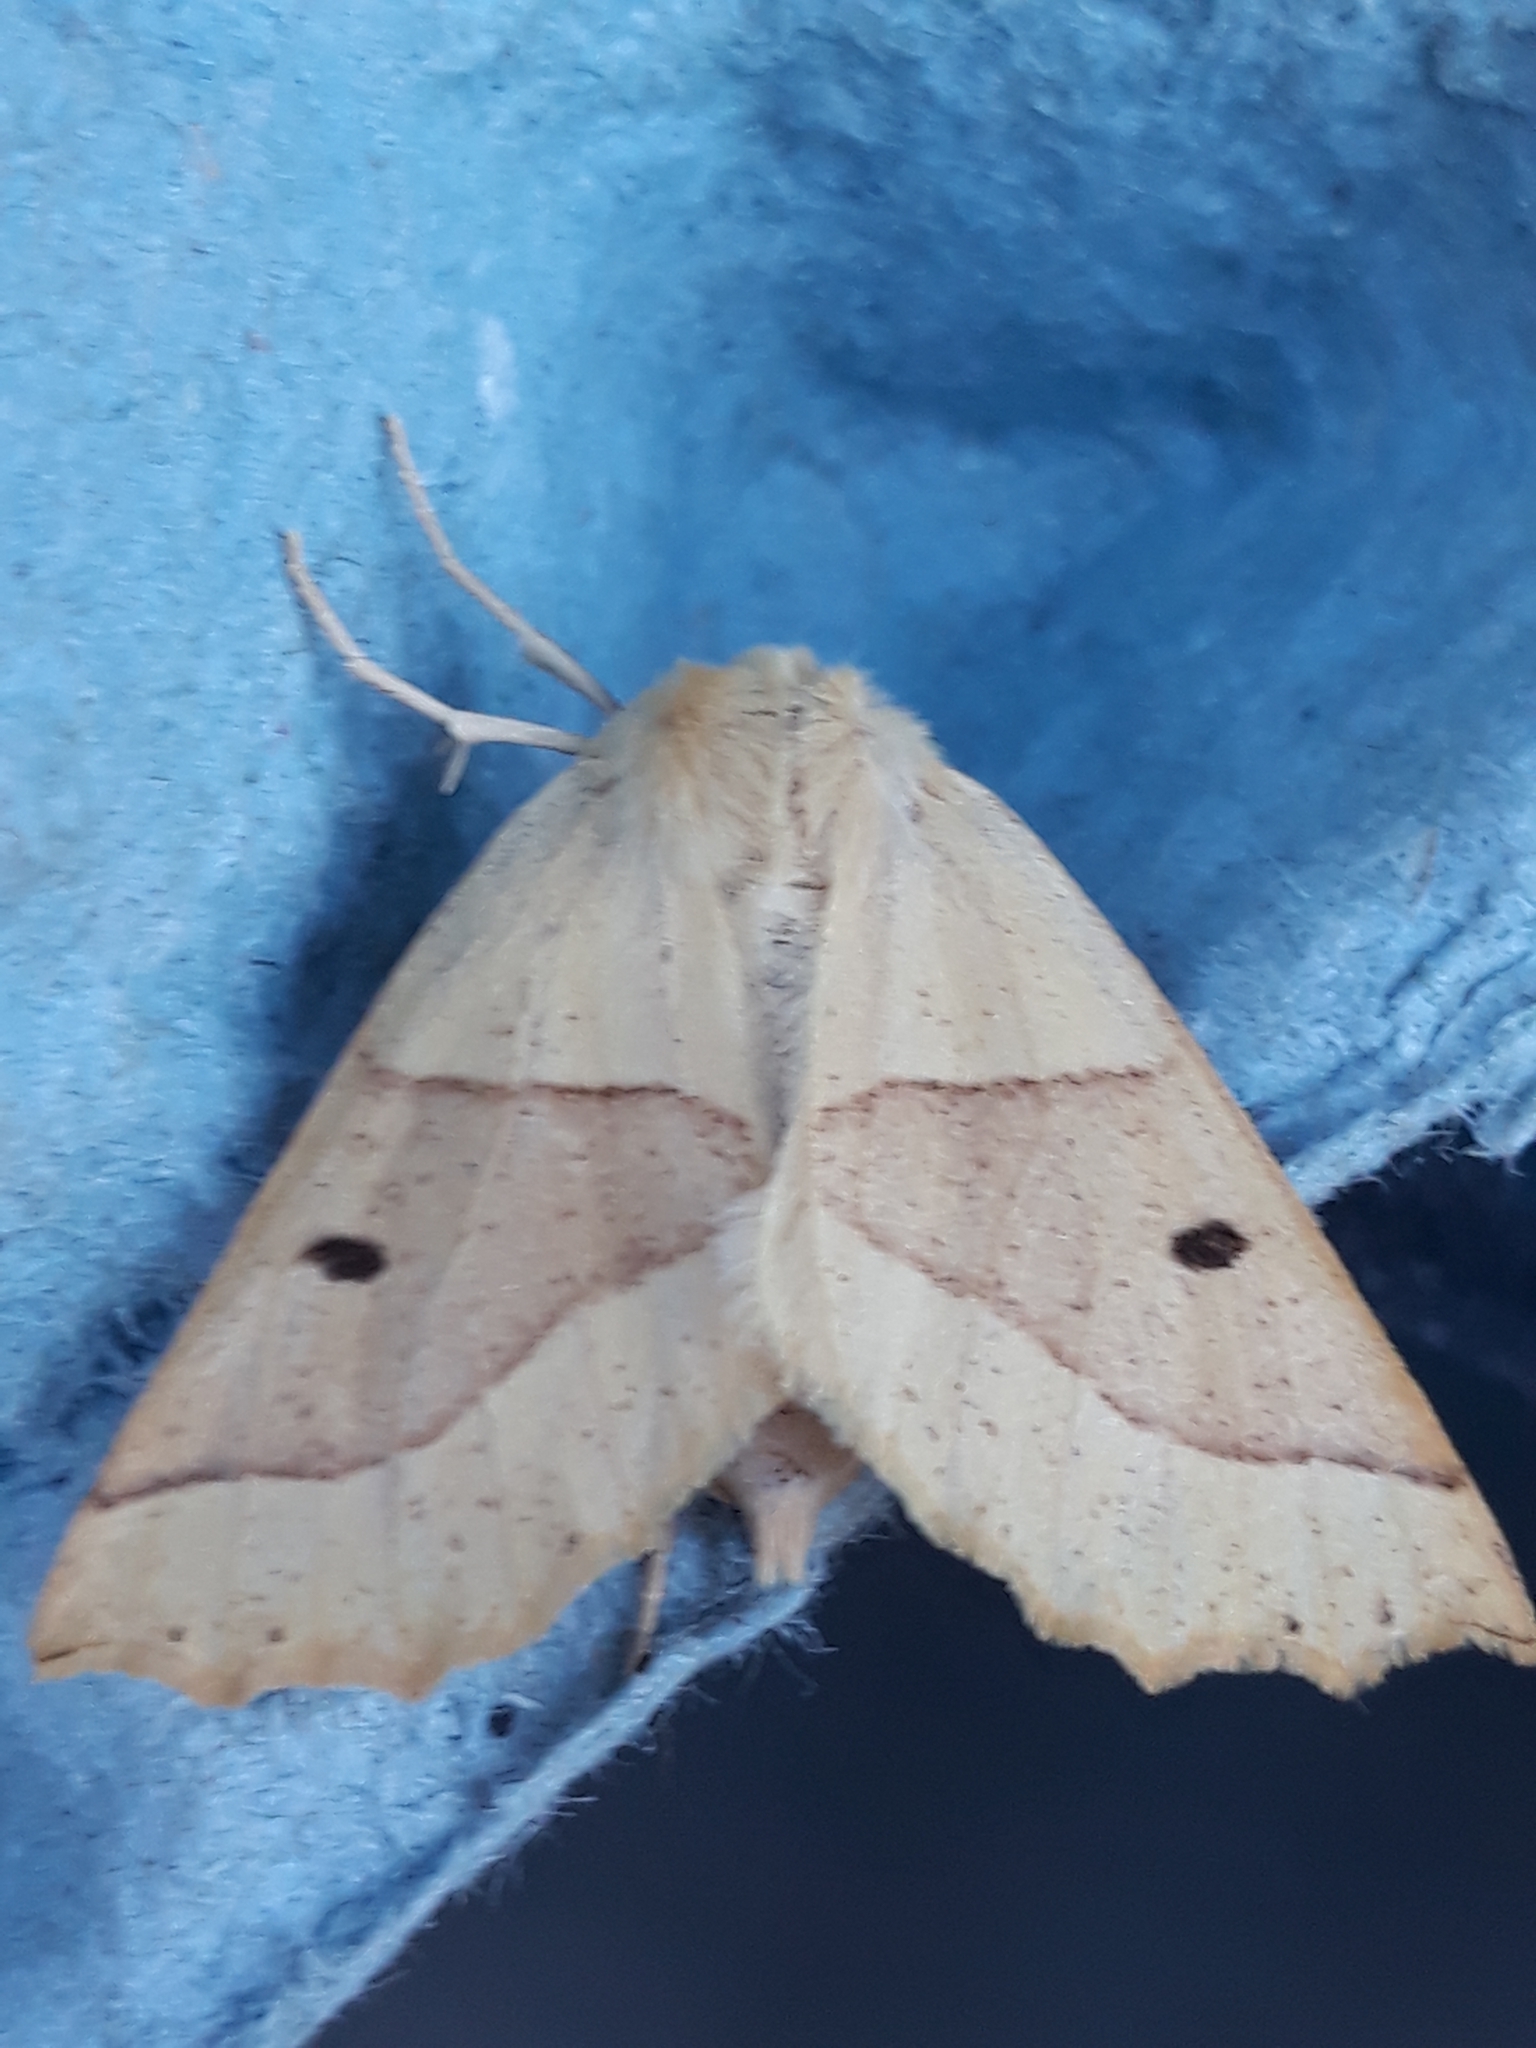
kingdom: Animalia
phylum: Arthropoda
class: Insecta
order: Lepidoptera
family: Geometridae
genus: Crocallis
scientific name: Crocallis elinguaria
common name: Scalloped oak
